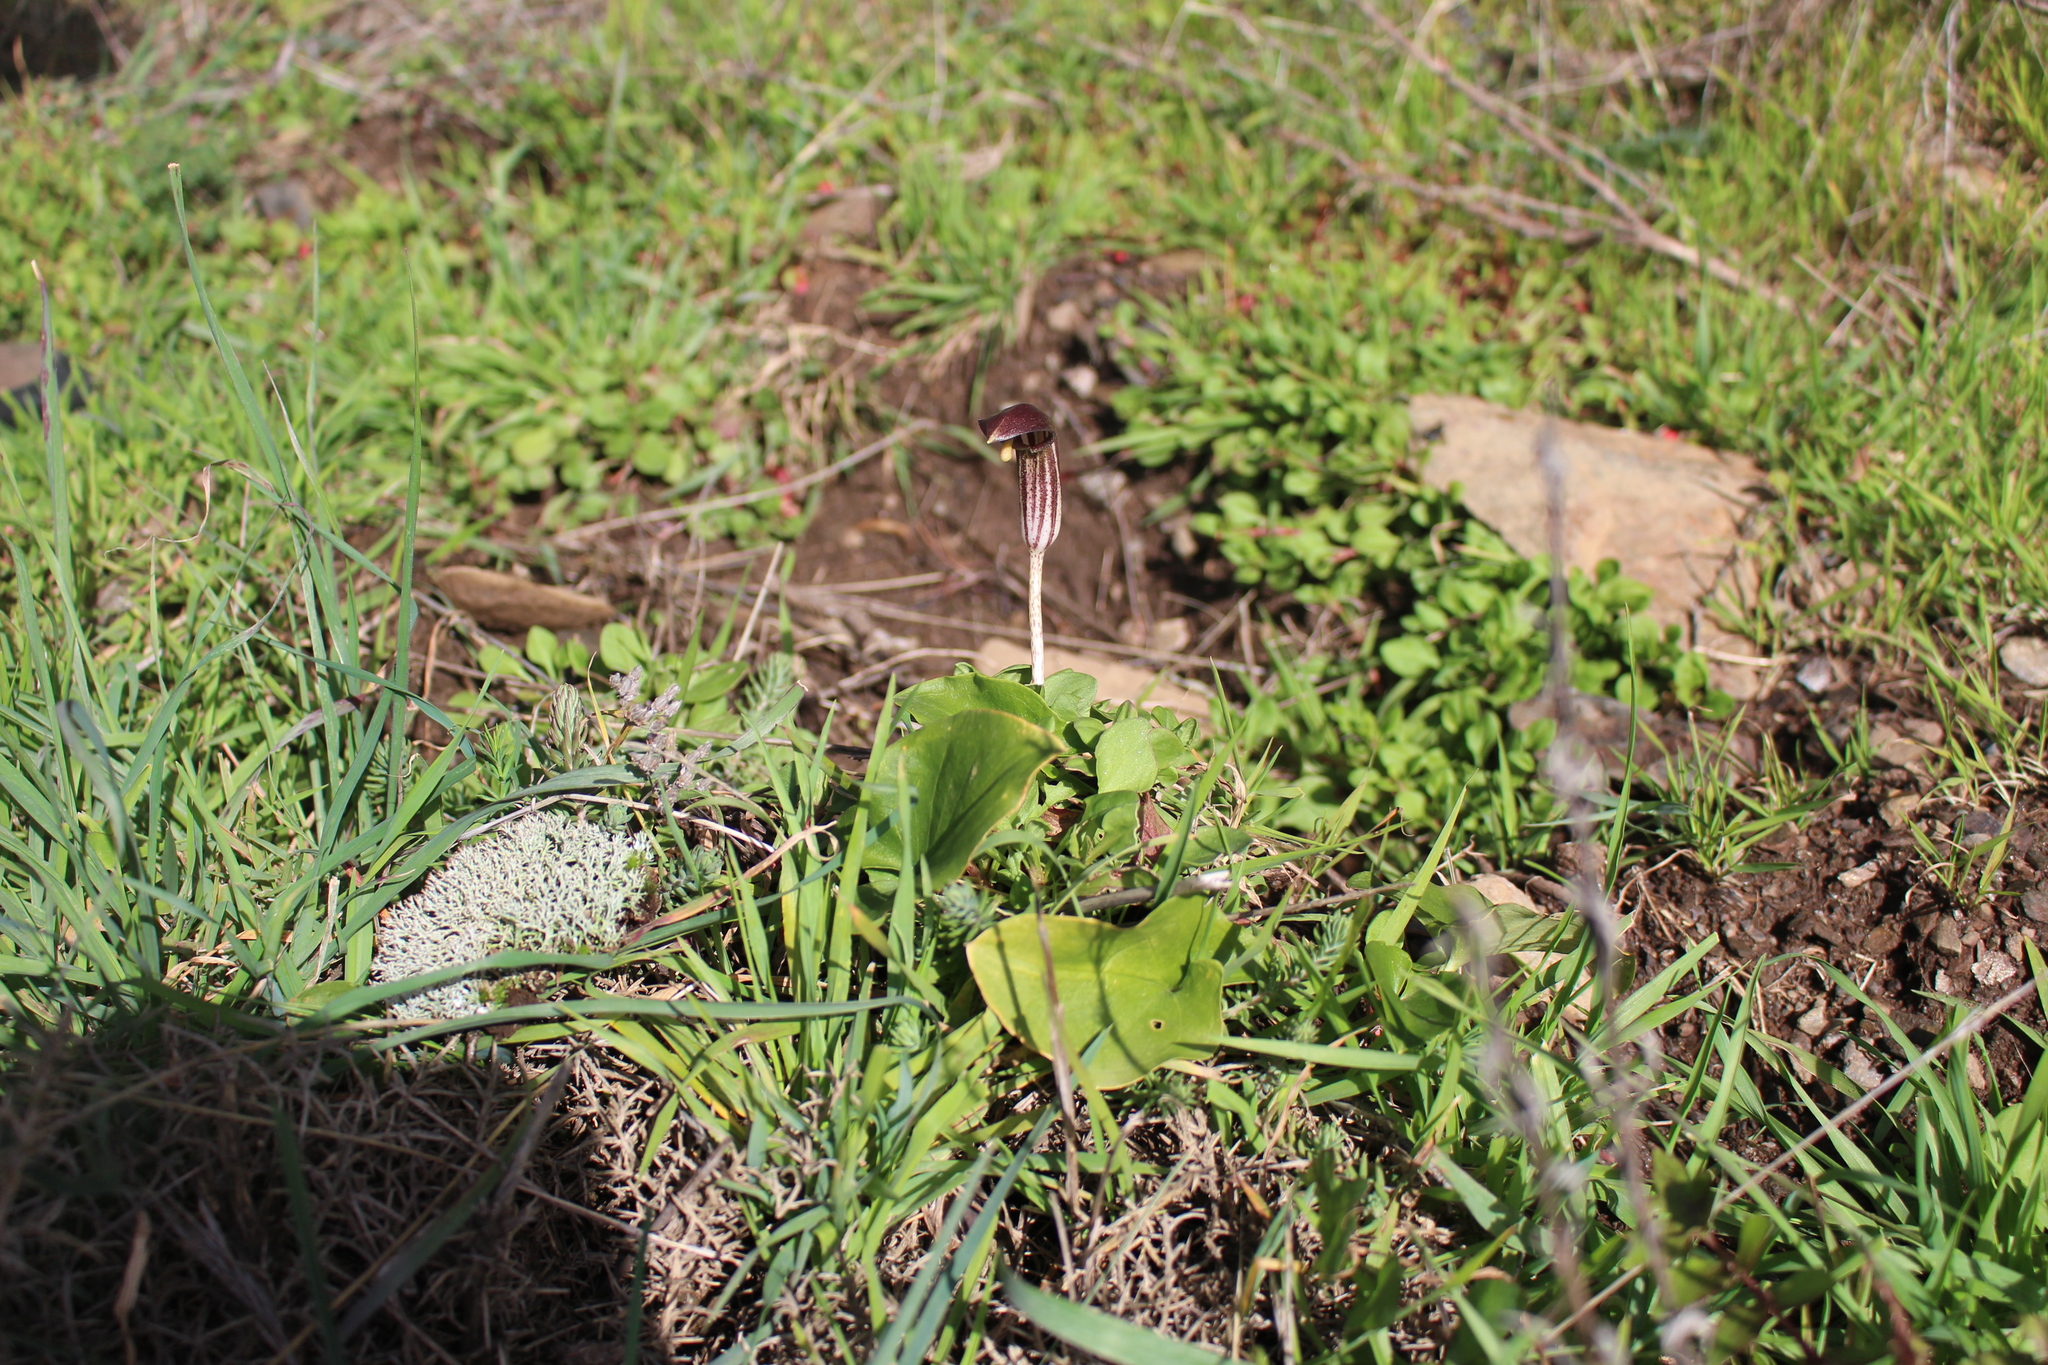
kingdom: Plantae
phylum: Tracheophyta
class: Liliopsida
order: Alismatales
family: Araceae
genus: Arisarum
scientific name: Arisarum vulgare
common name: Common arisarum
